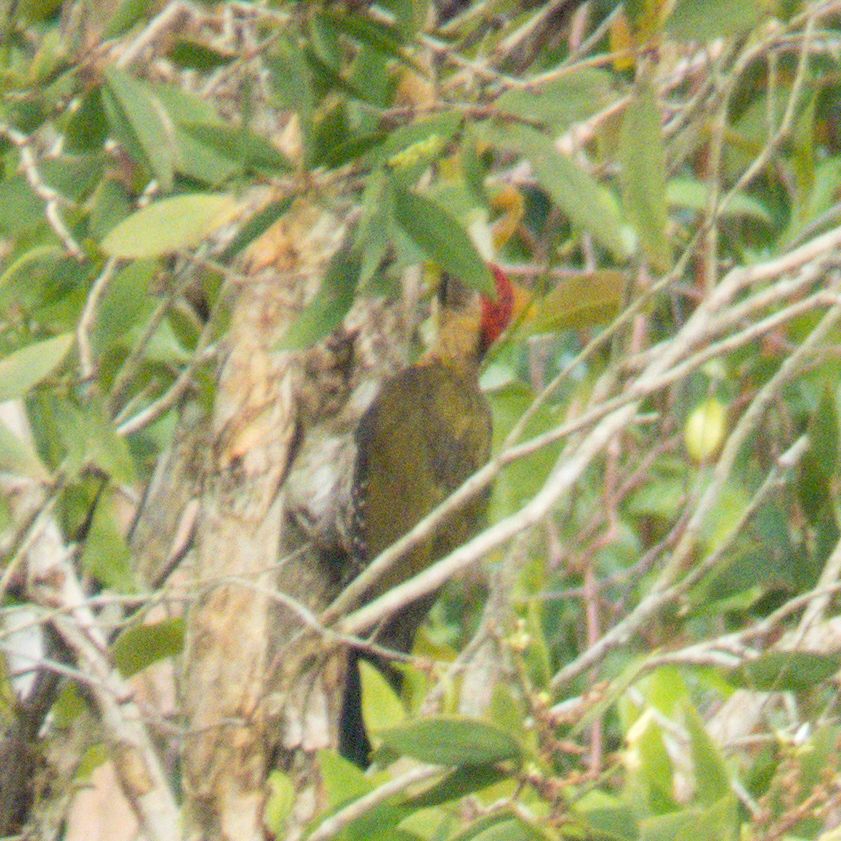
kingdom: Animalia
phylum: Chordata
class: Aves
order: Piciformes
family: Picidae
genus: Picus
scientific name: Picus vittatus
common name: Laced woodpecker
